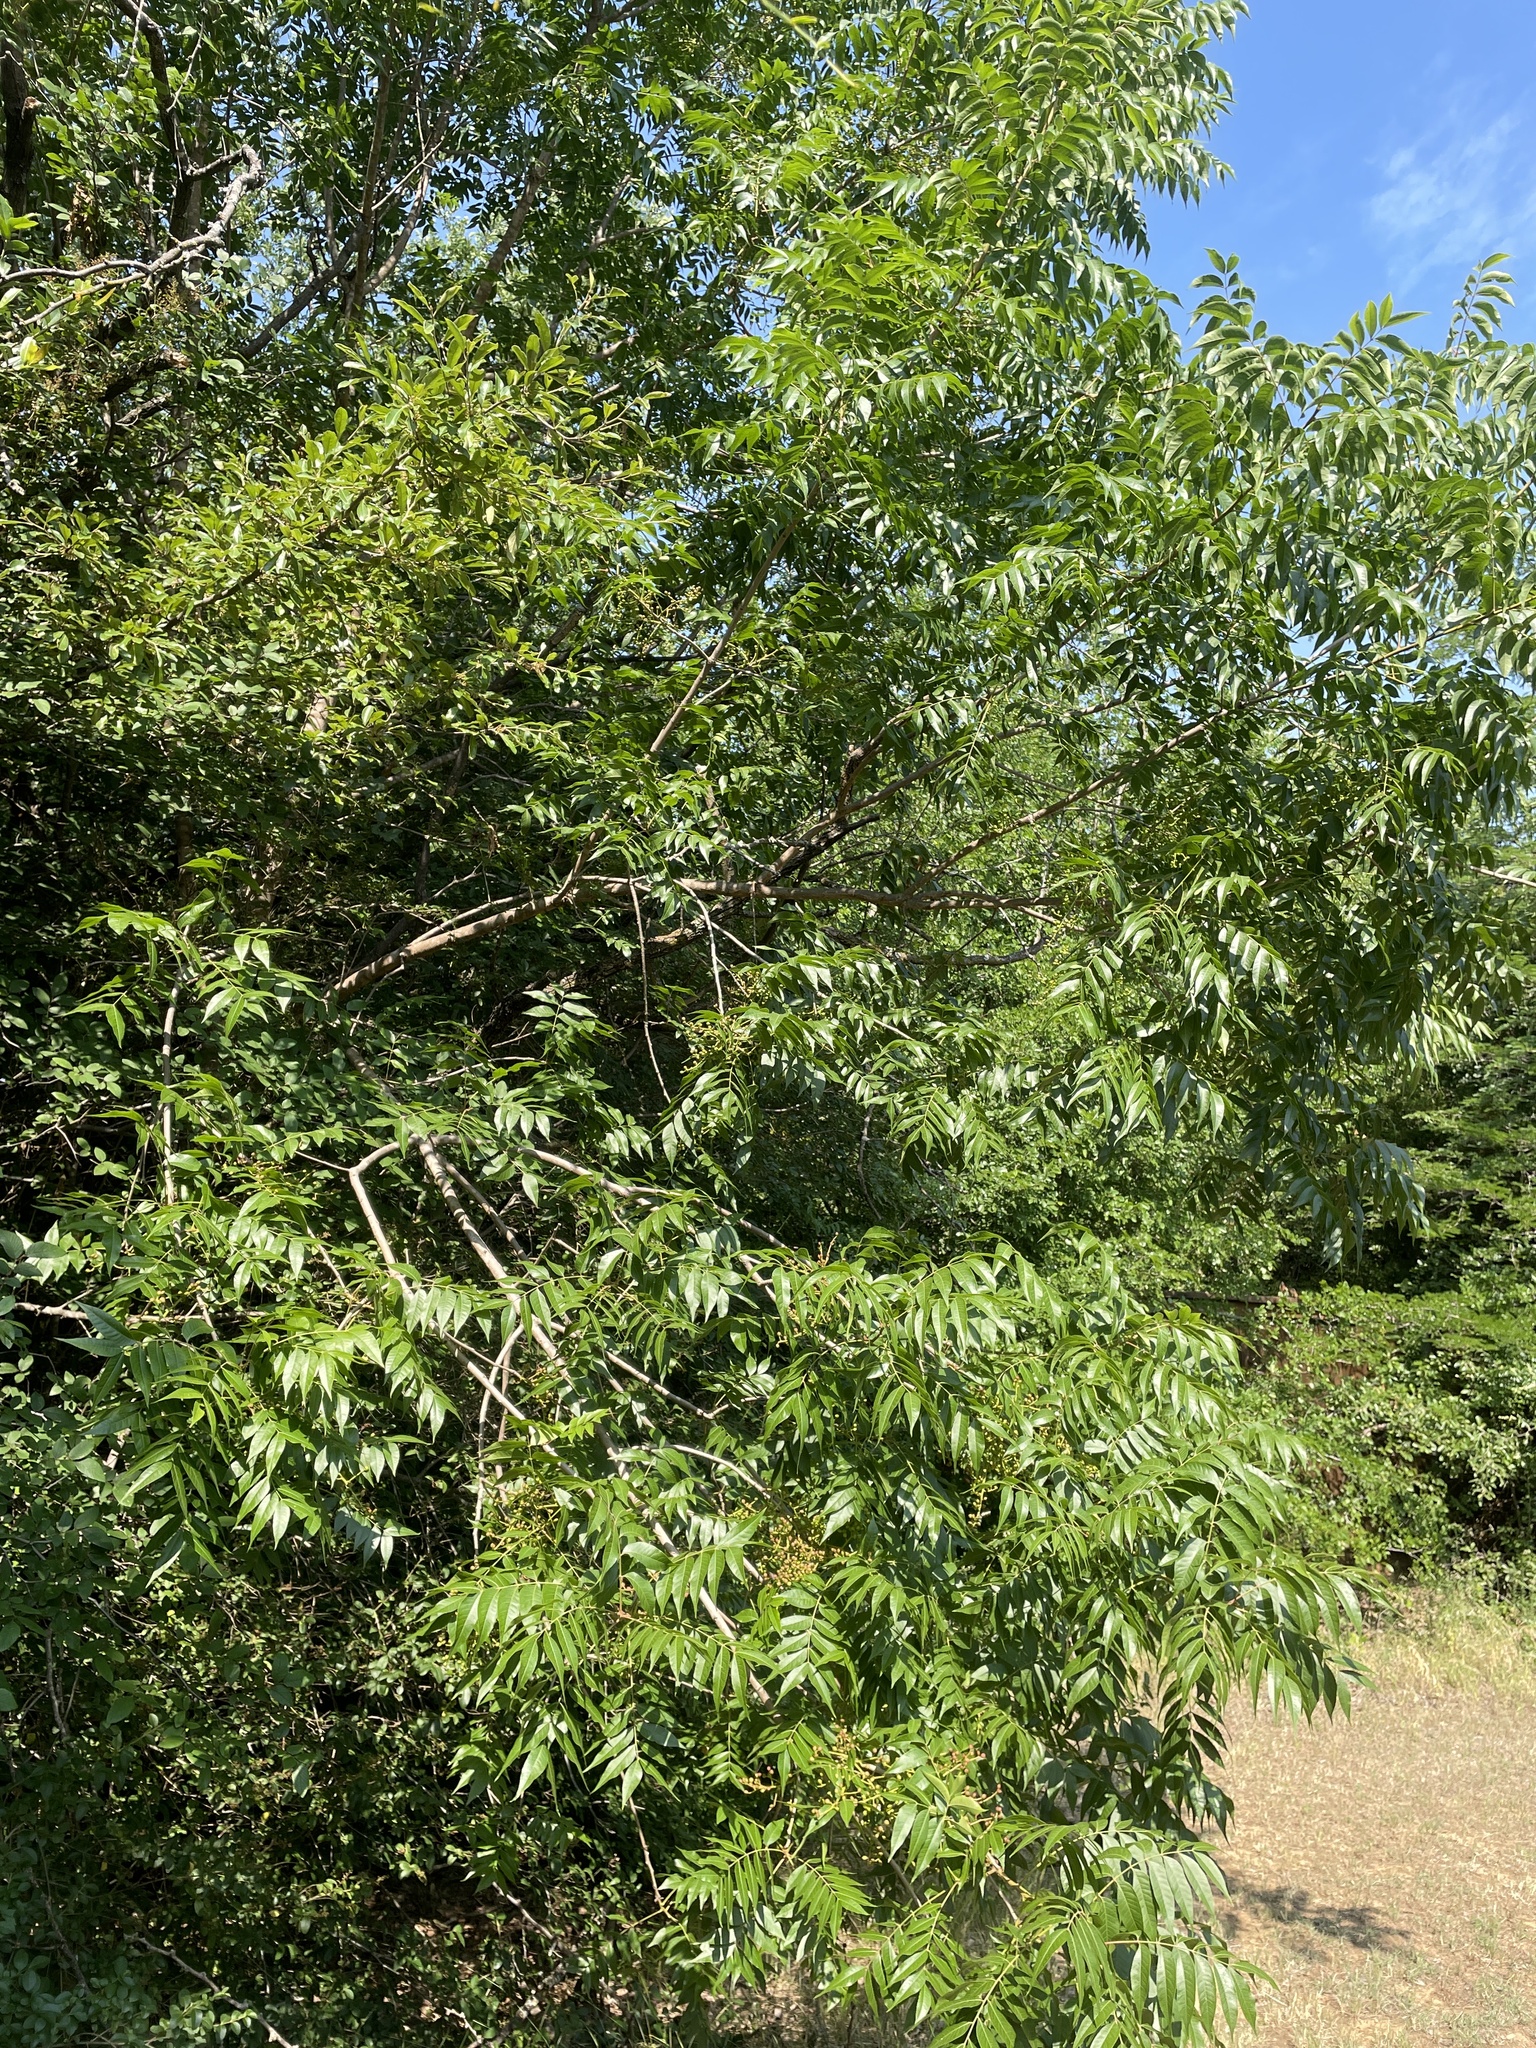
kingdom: Plantae
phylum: Tracheophyta
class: Magnoliopsida
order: Sapindales
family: Anacardiaceae
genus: Pistacia
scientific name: Pistacia chinensis
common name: Chinese pistache
